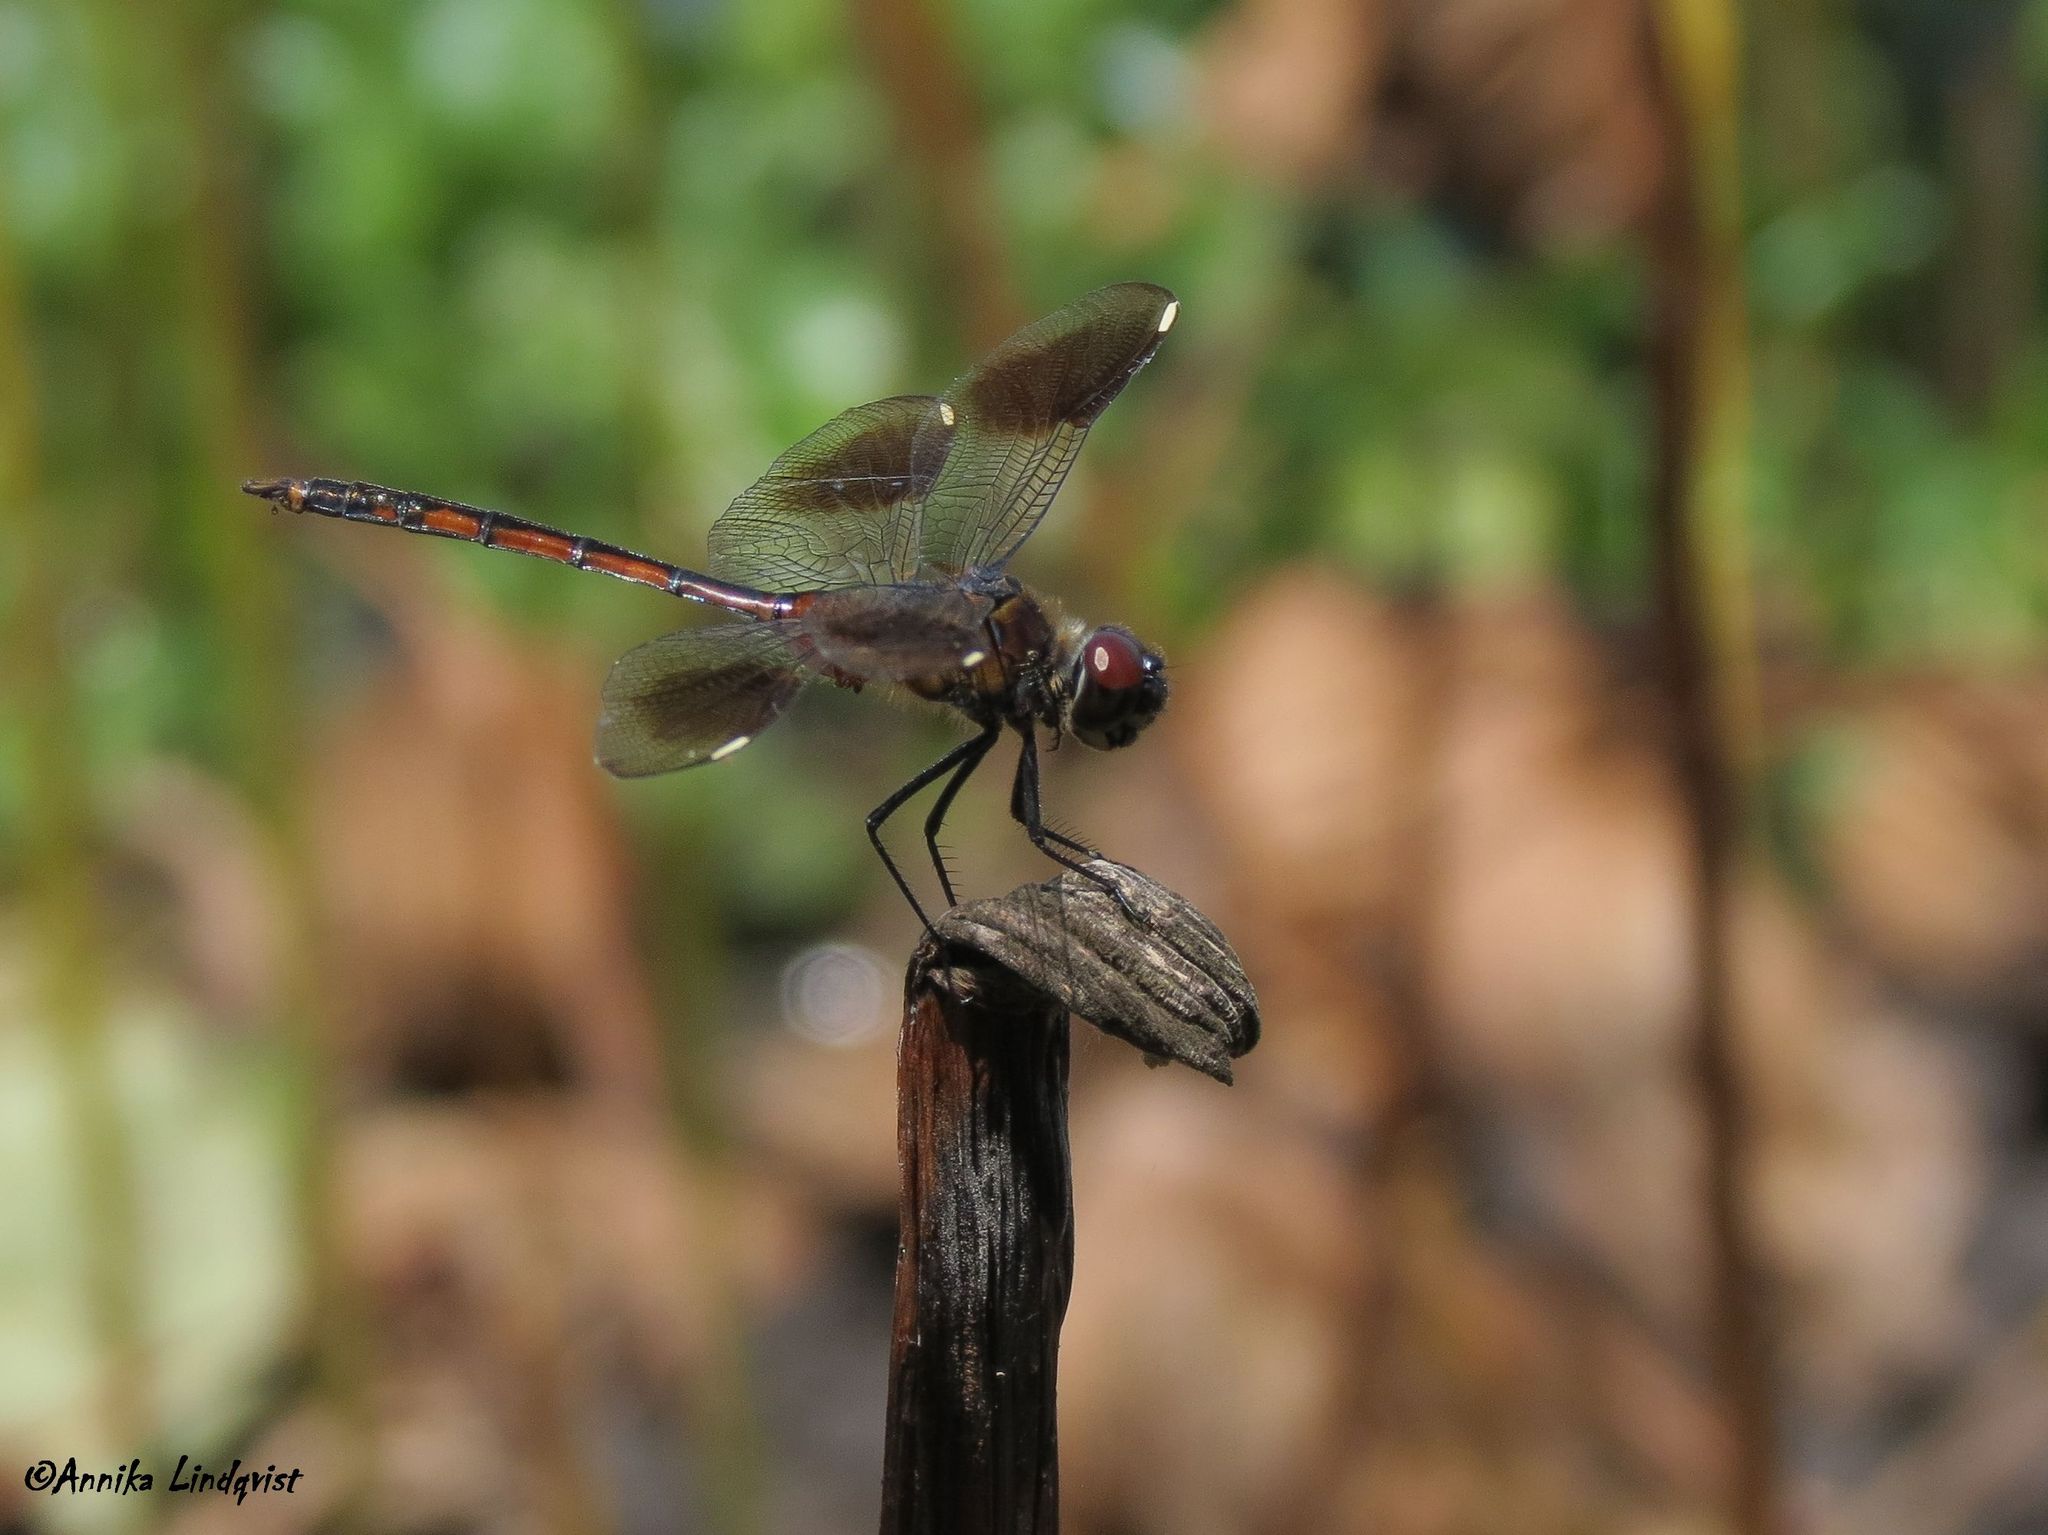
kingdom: Animalia
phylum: Arthropoda
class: Insecta
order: Odonata
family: Libellulidae
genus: Brachymesia
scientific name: Brachymesia gravida
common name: Four-spotted pennant
